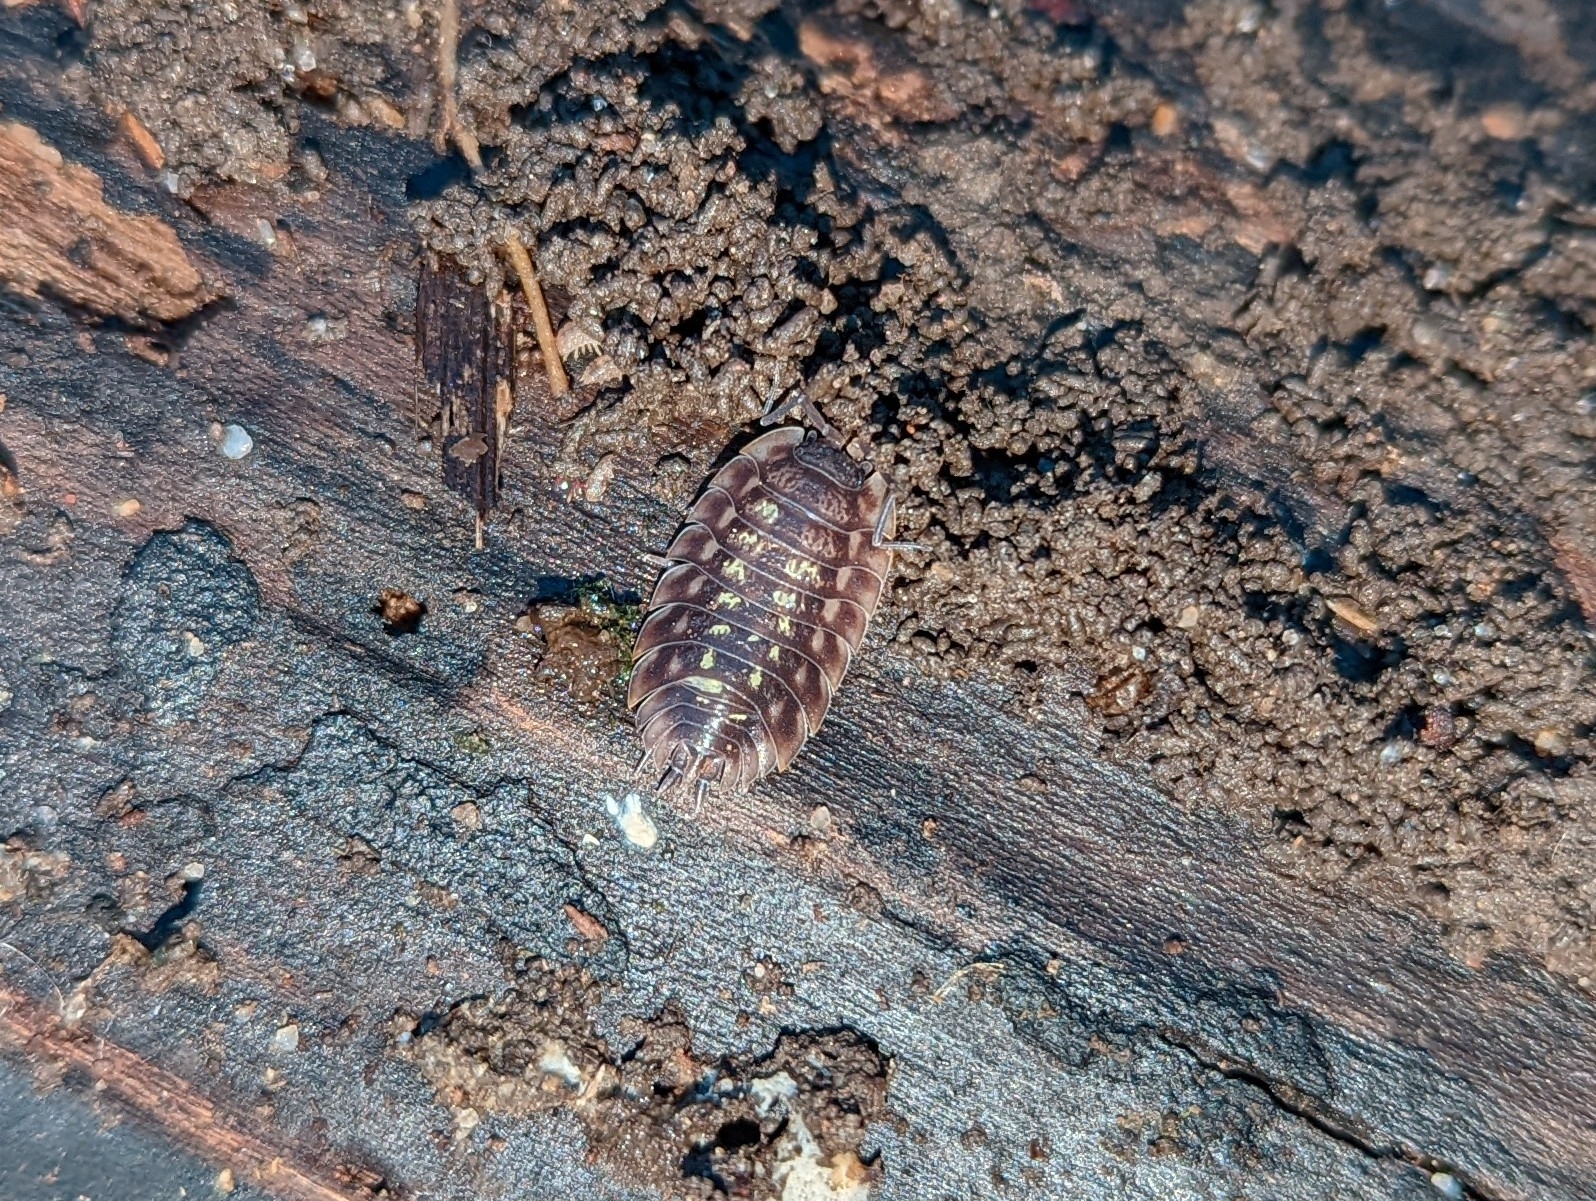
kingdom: Animalia
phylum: Arthropoda
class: Malacostraca
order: Isopoda
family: Oniscidae
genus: Oniscus
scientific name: Oniscus asellus
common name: Common shiny woodlouse
